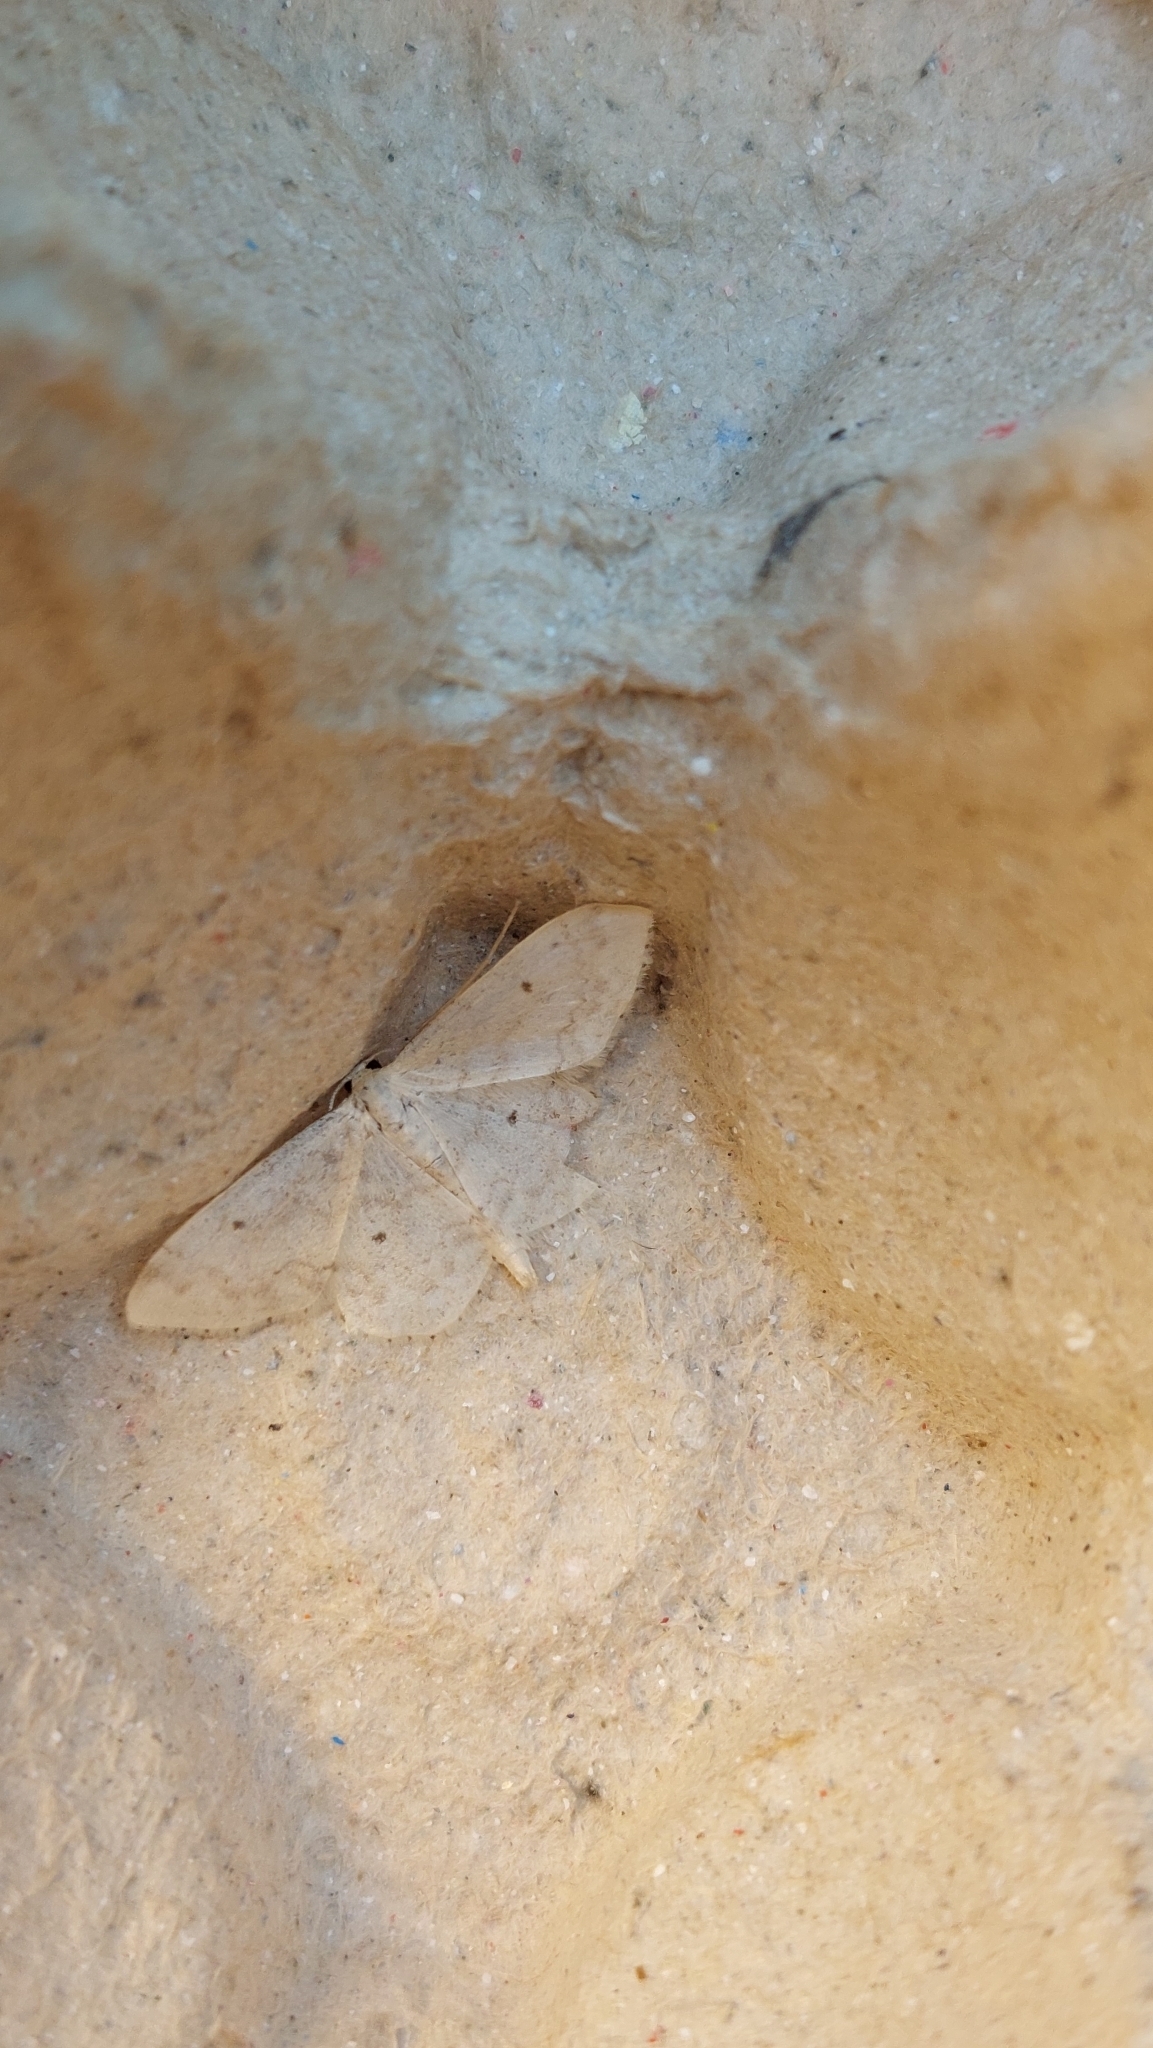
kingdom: Animalia
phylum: Arthropoda
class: Insecta
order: Lepidoptera
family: Geometridae
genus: Idaea
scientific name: Idaea biselata
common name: Small fan-footed wave
